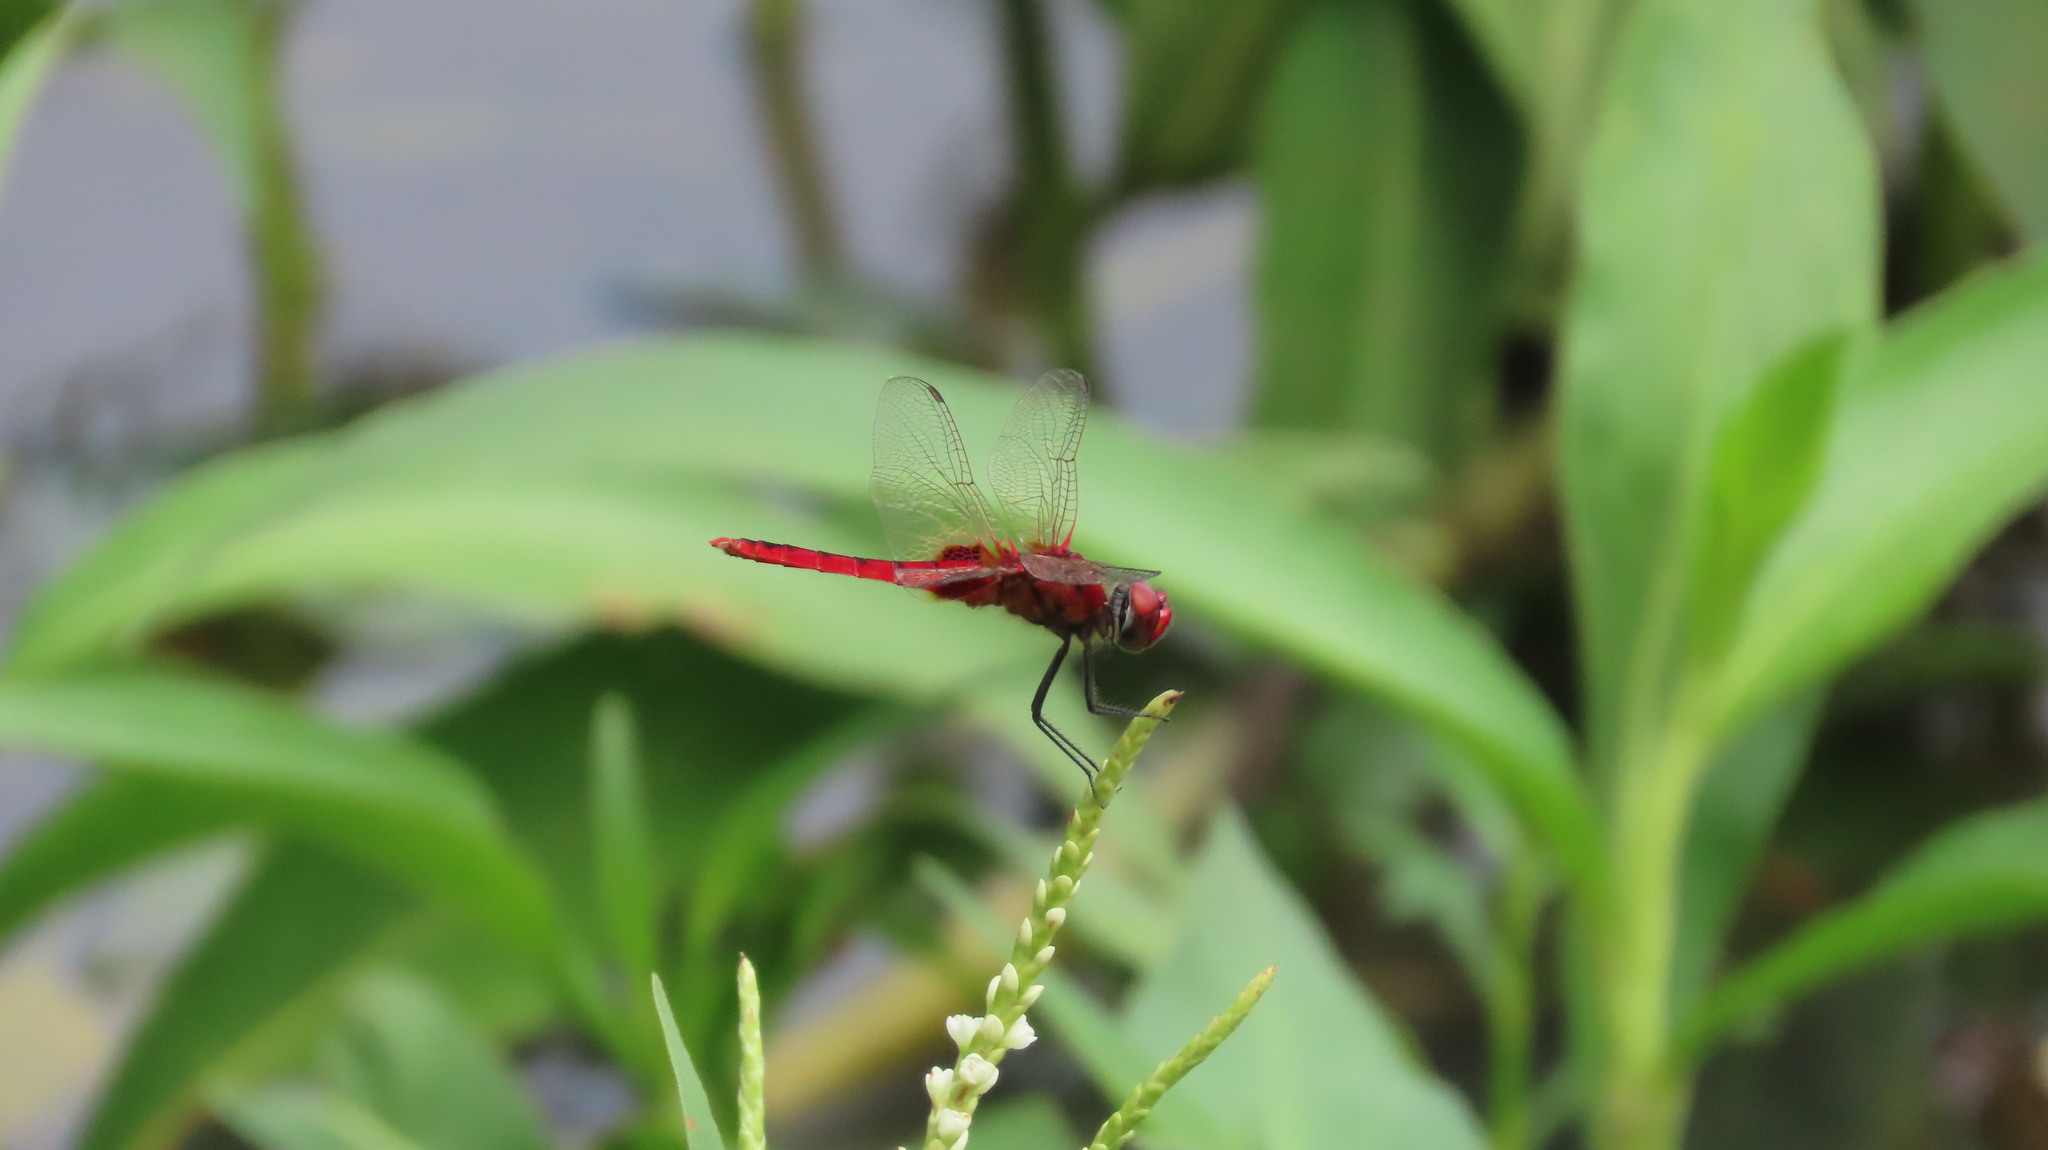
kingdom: Animalia
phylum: Arthropoda
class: Insecta
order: Odonata
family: Libellulidae
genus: Urothemis
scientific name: Urothemis signata
